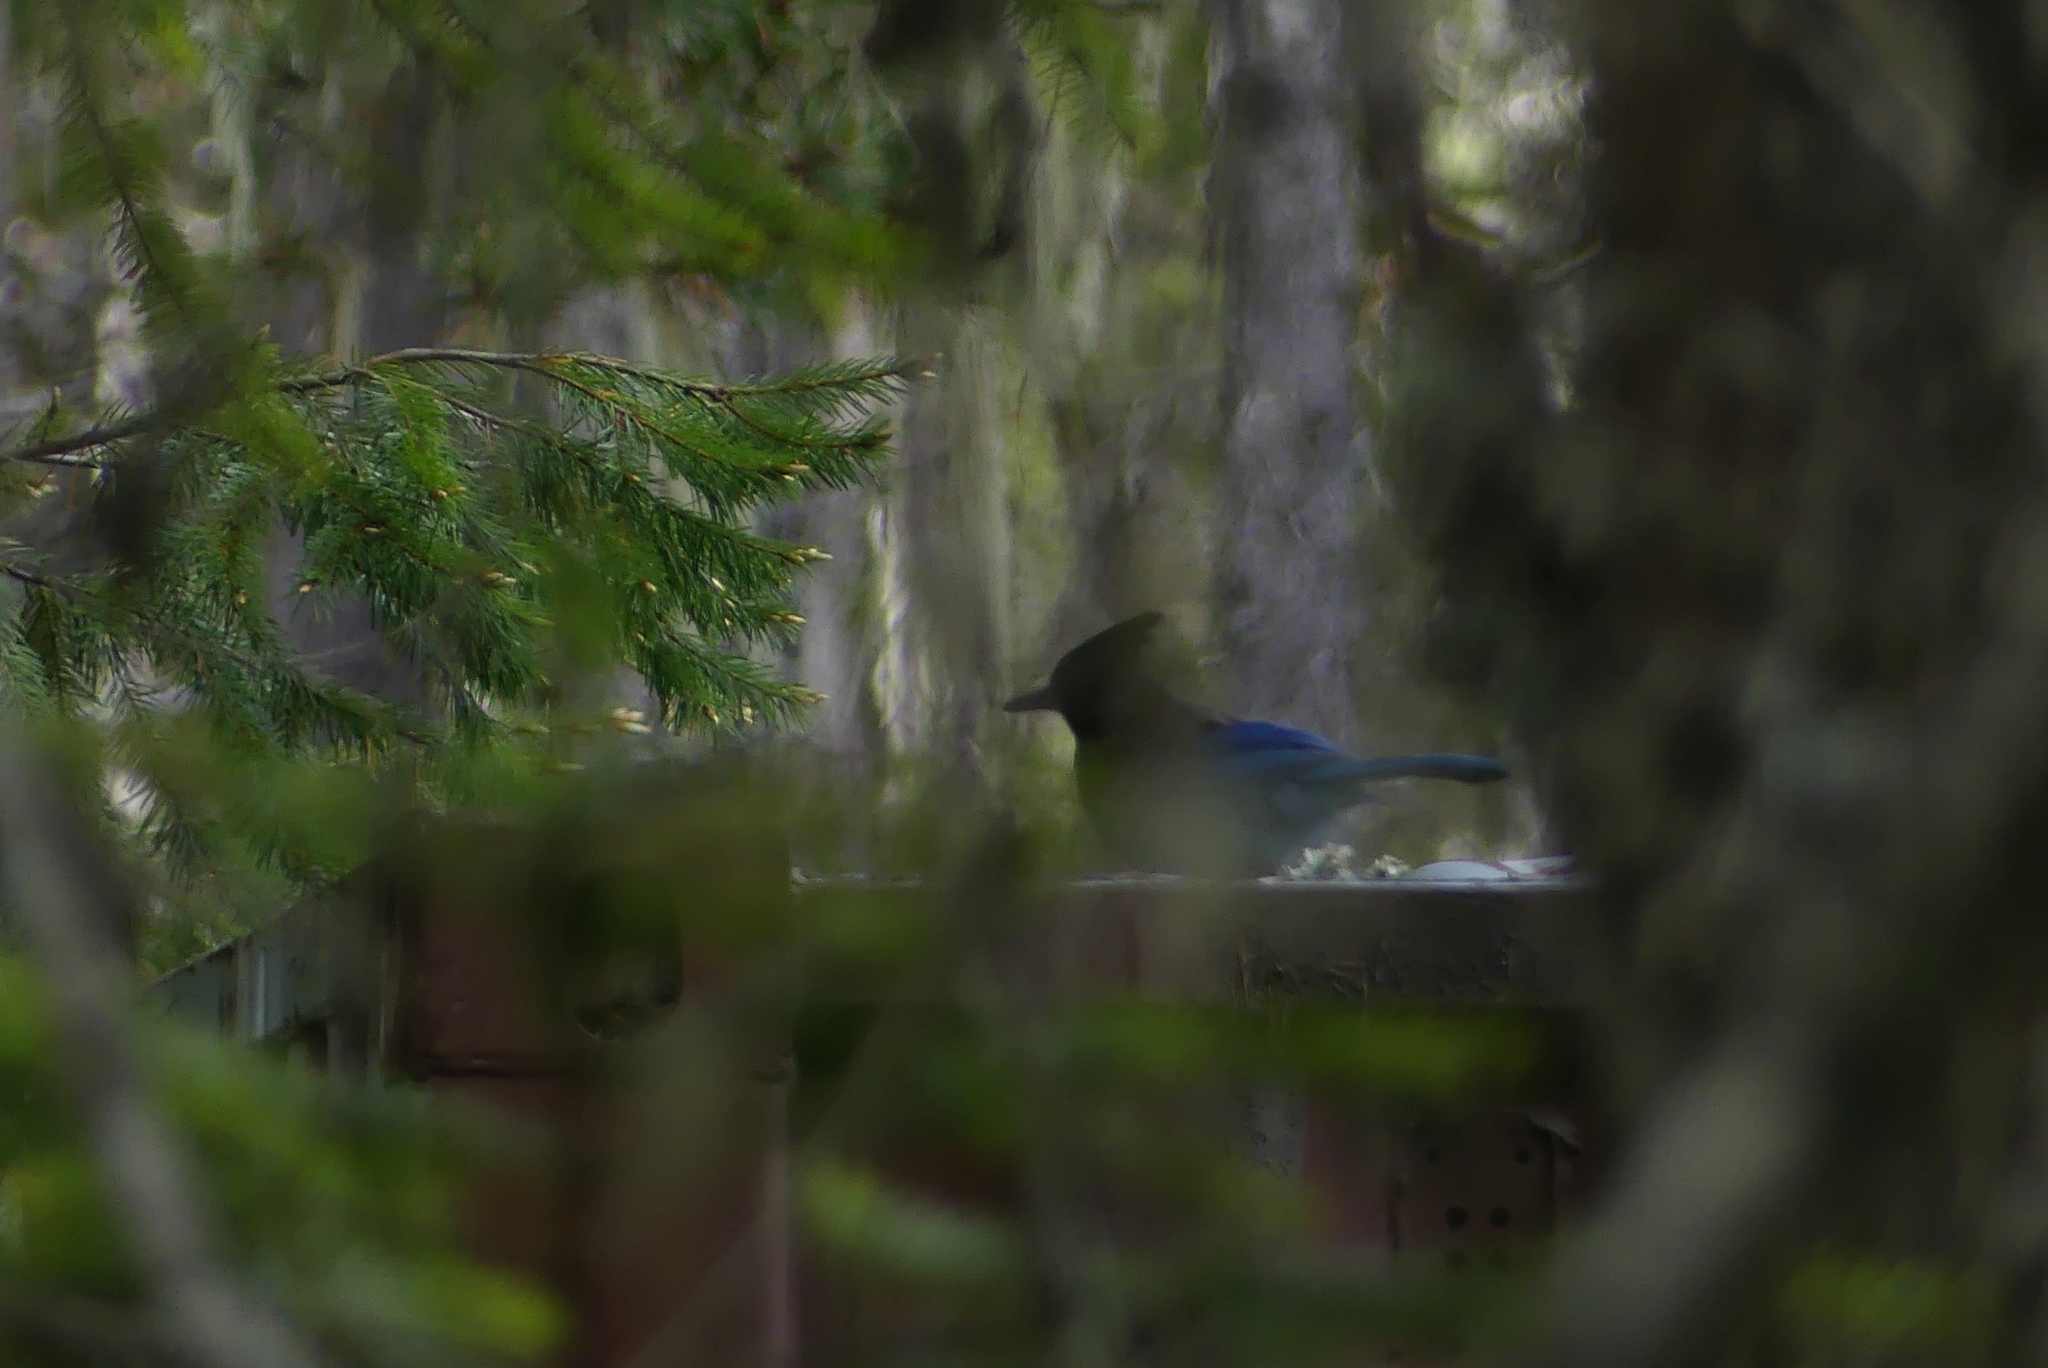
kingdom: Animalia
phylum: Chordata
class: Aves
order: Passeriformes
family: Corvidae
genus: Cyanocitta
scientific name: Cyanocitta stelleri
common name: Steller's jay
